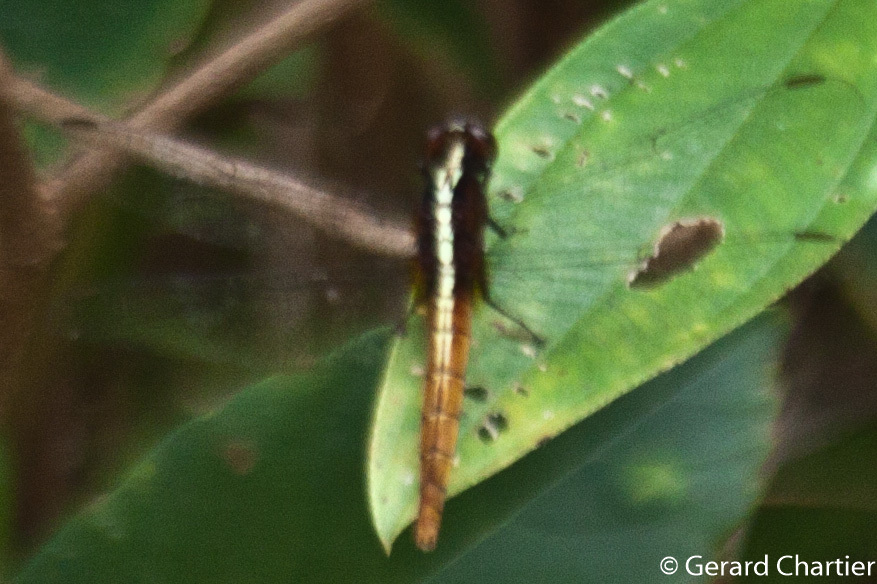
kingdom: Animalia
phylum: Arthropoda
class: Insecta
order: Odonata
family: Libellulidae
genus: Rhodothemis
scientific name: Rhodothemis rufa
